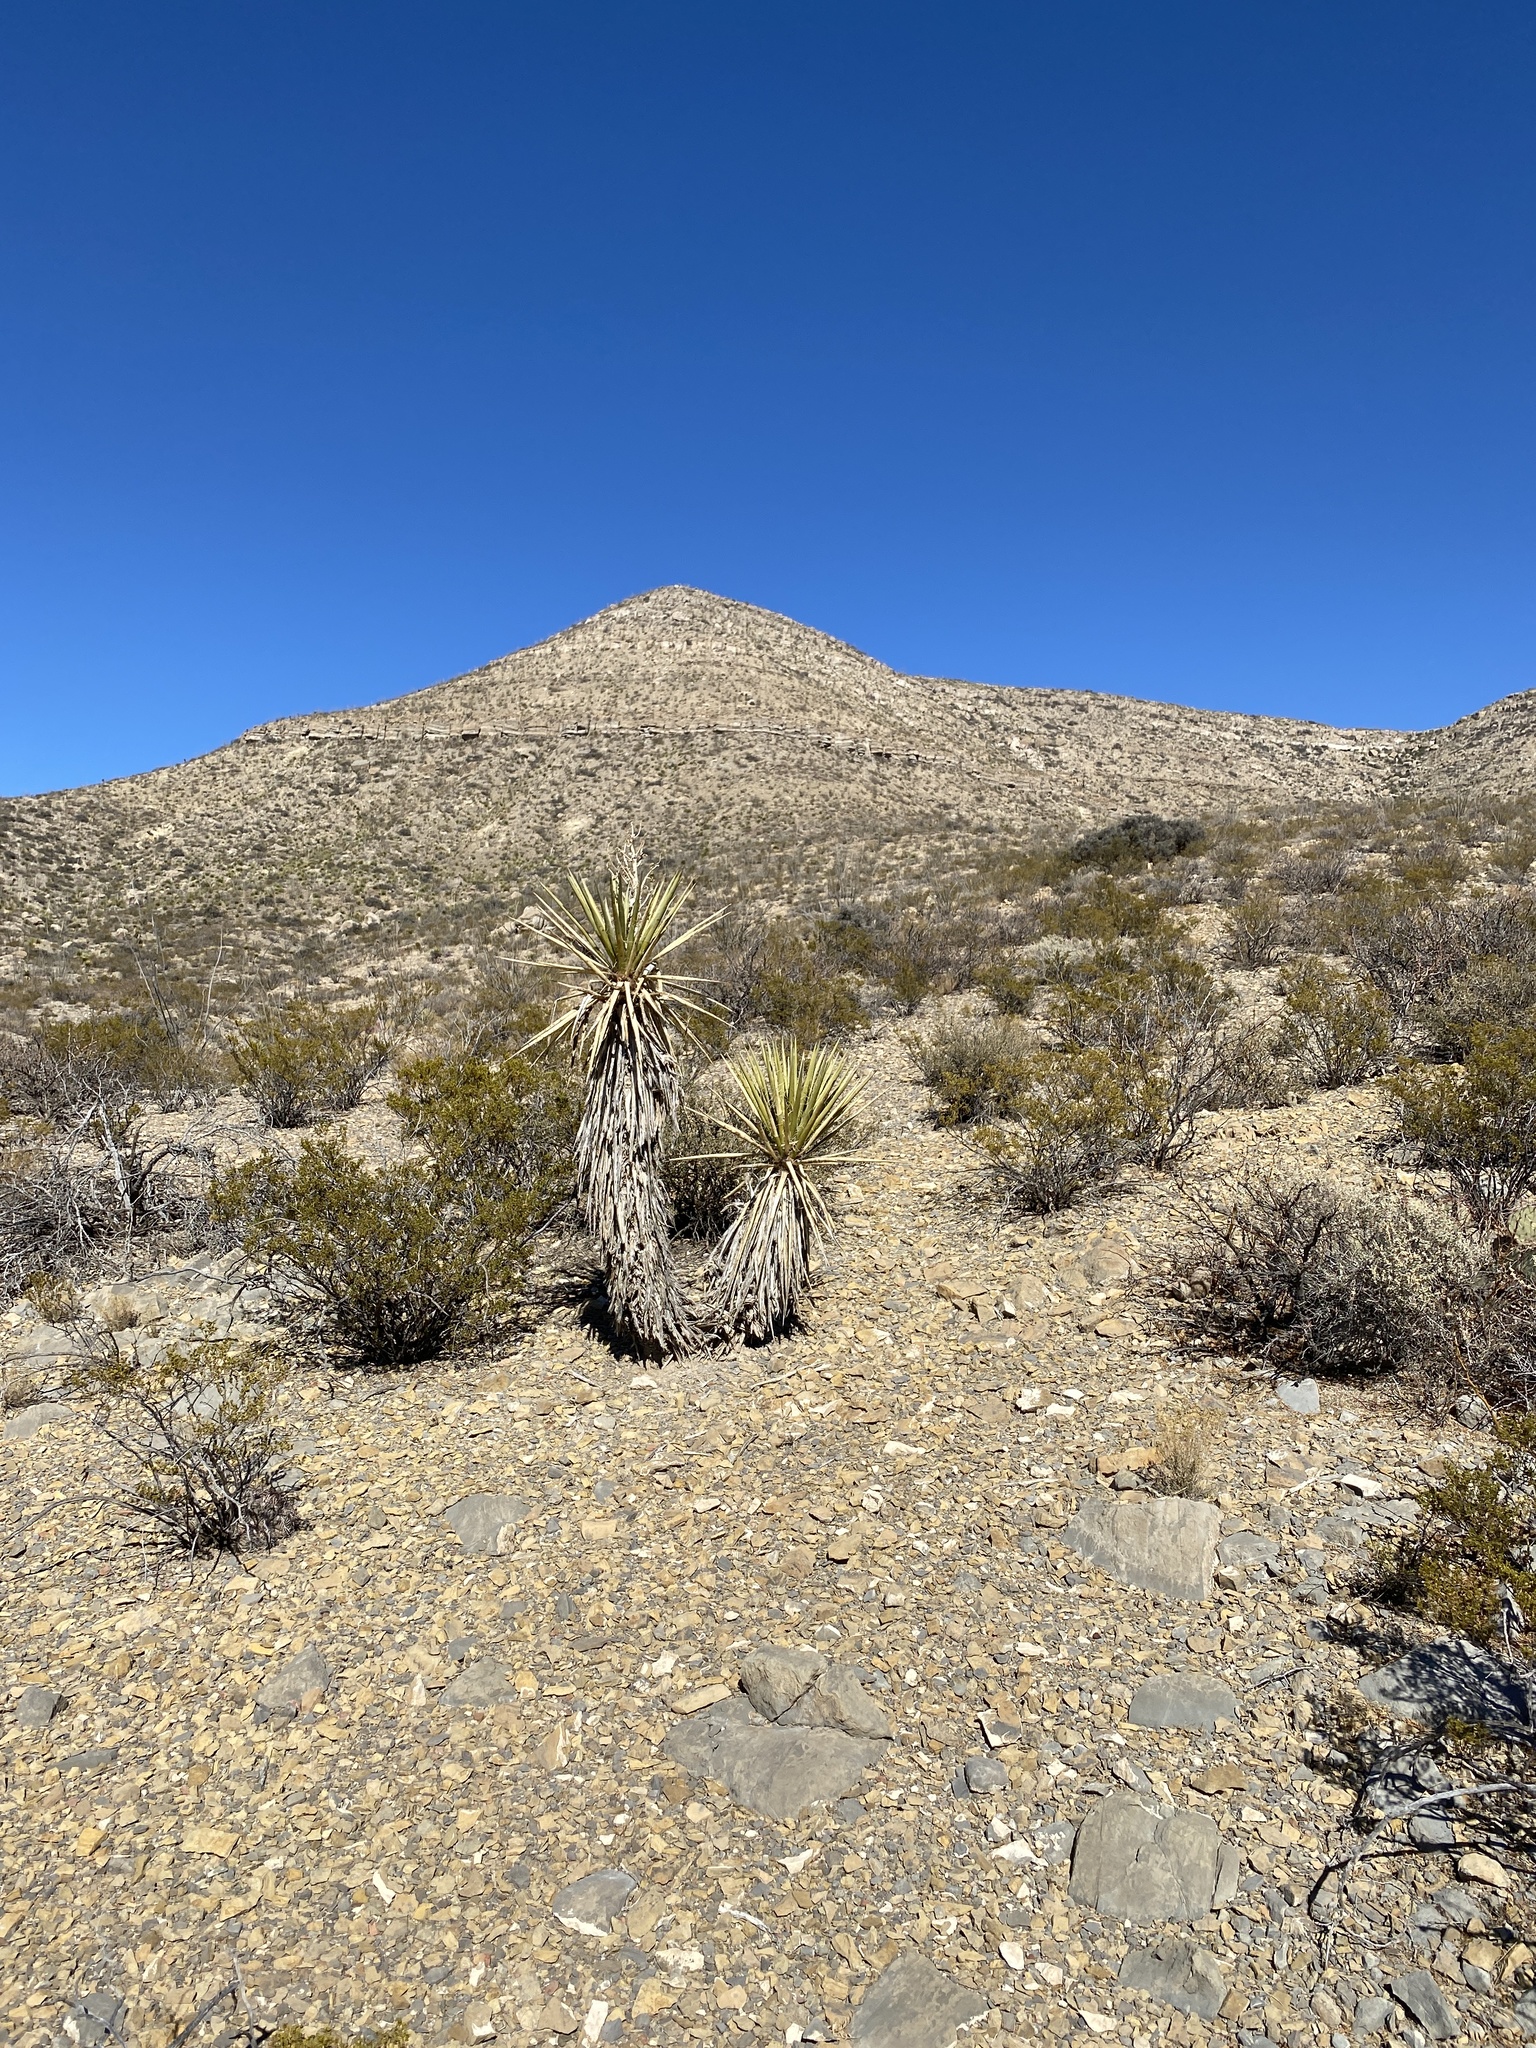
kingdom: Plantae
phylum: Tracheophyta
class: Liliopsida
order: Asparagales
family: Asparagaceae
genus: Yucca
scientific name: Yucca treculiana
